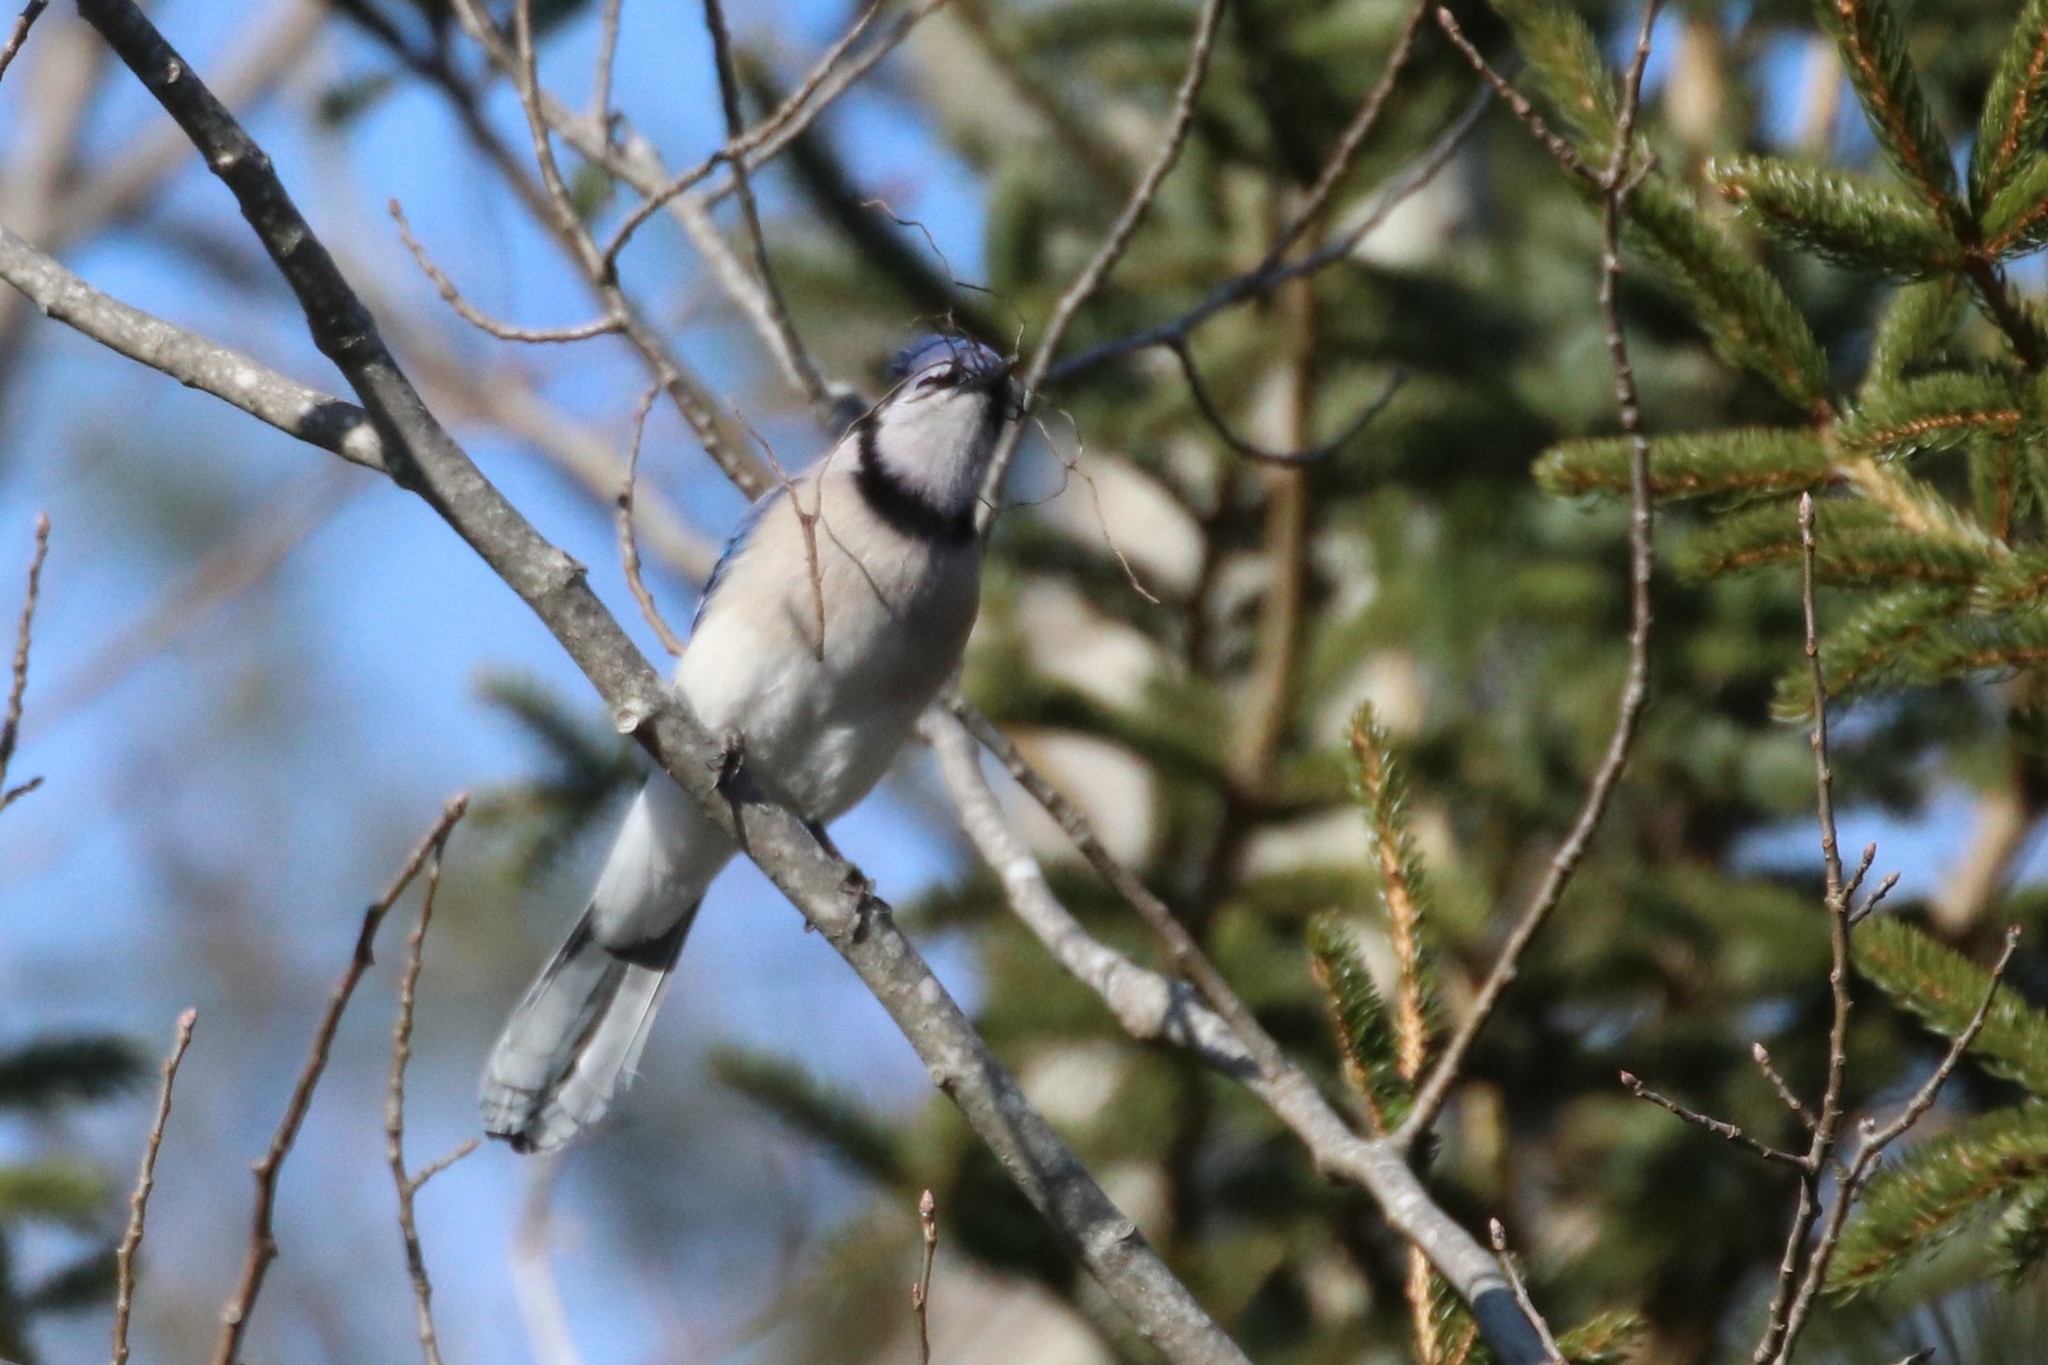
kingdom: Animalia
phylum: Chordata
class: Aves
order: Passeriformes
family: Corvidae
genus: Cyanocitta
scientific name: Cyanocitta cristata
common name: Blue jay
